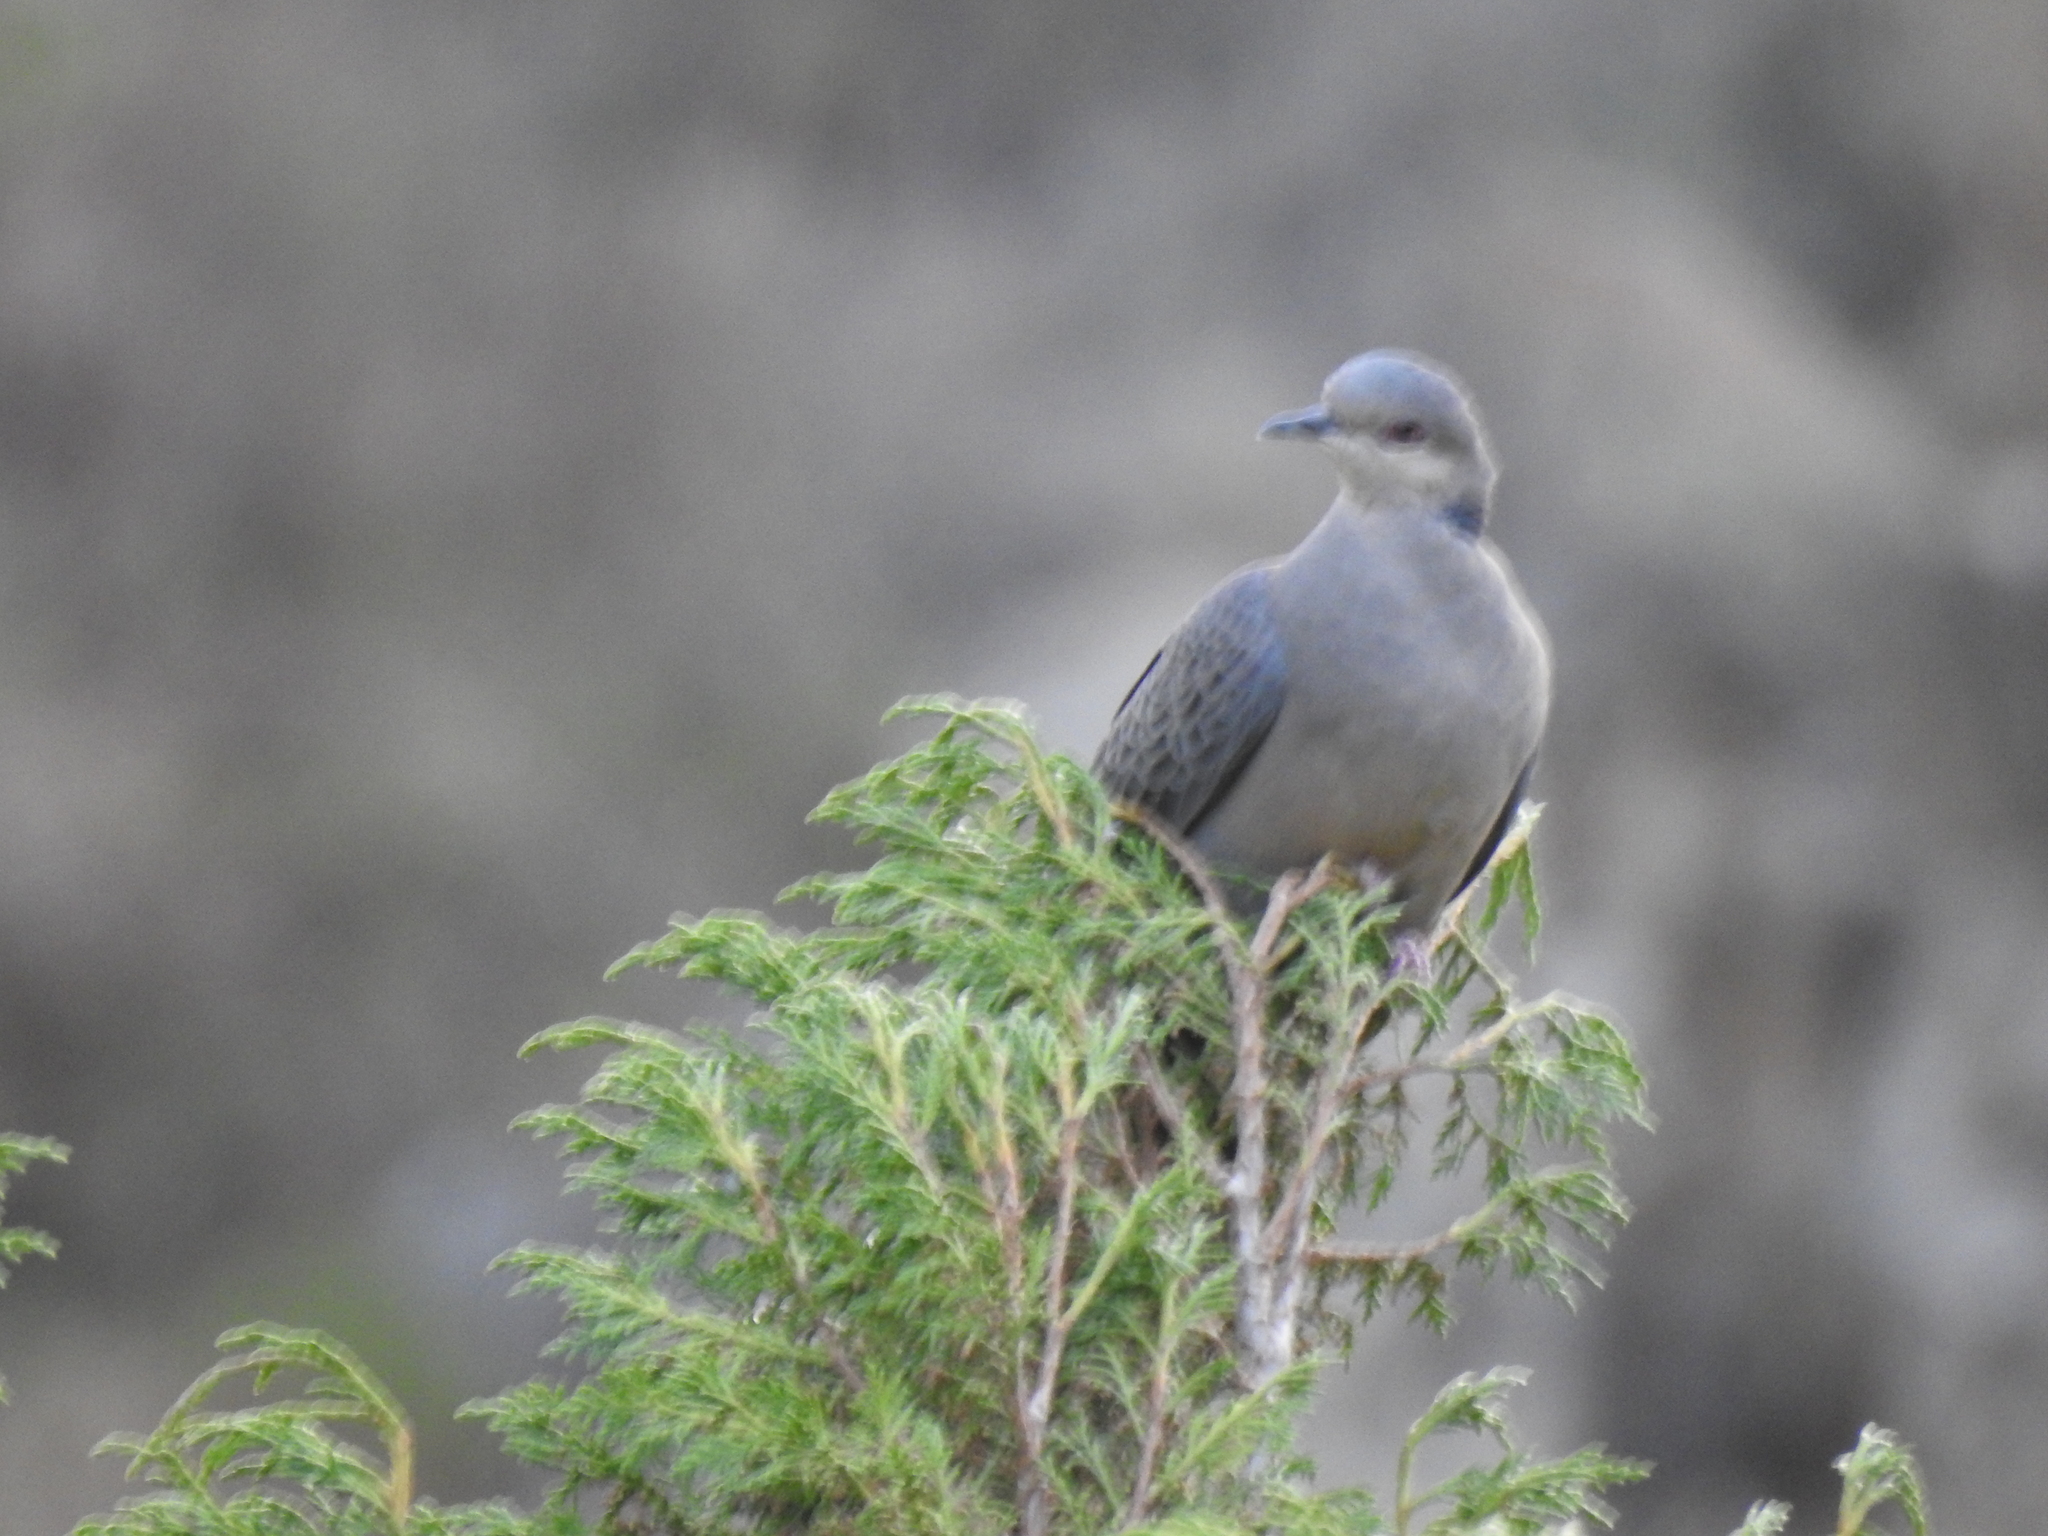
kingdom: Animalia
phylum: Chordata
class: Aves
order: Columbiformes
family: Columbidae
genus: Streptopelia
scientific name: Streptopelia lugens
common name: Dusky turtle dove
